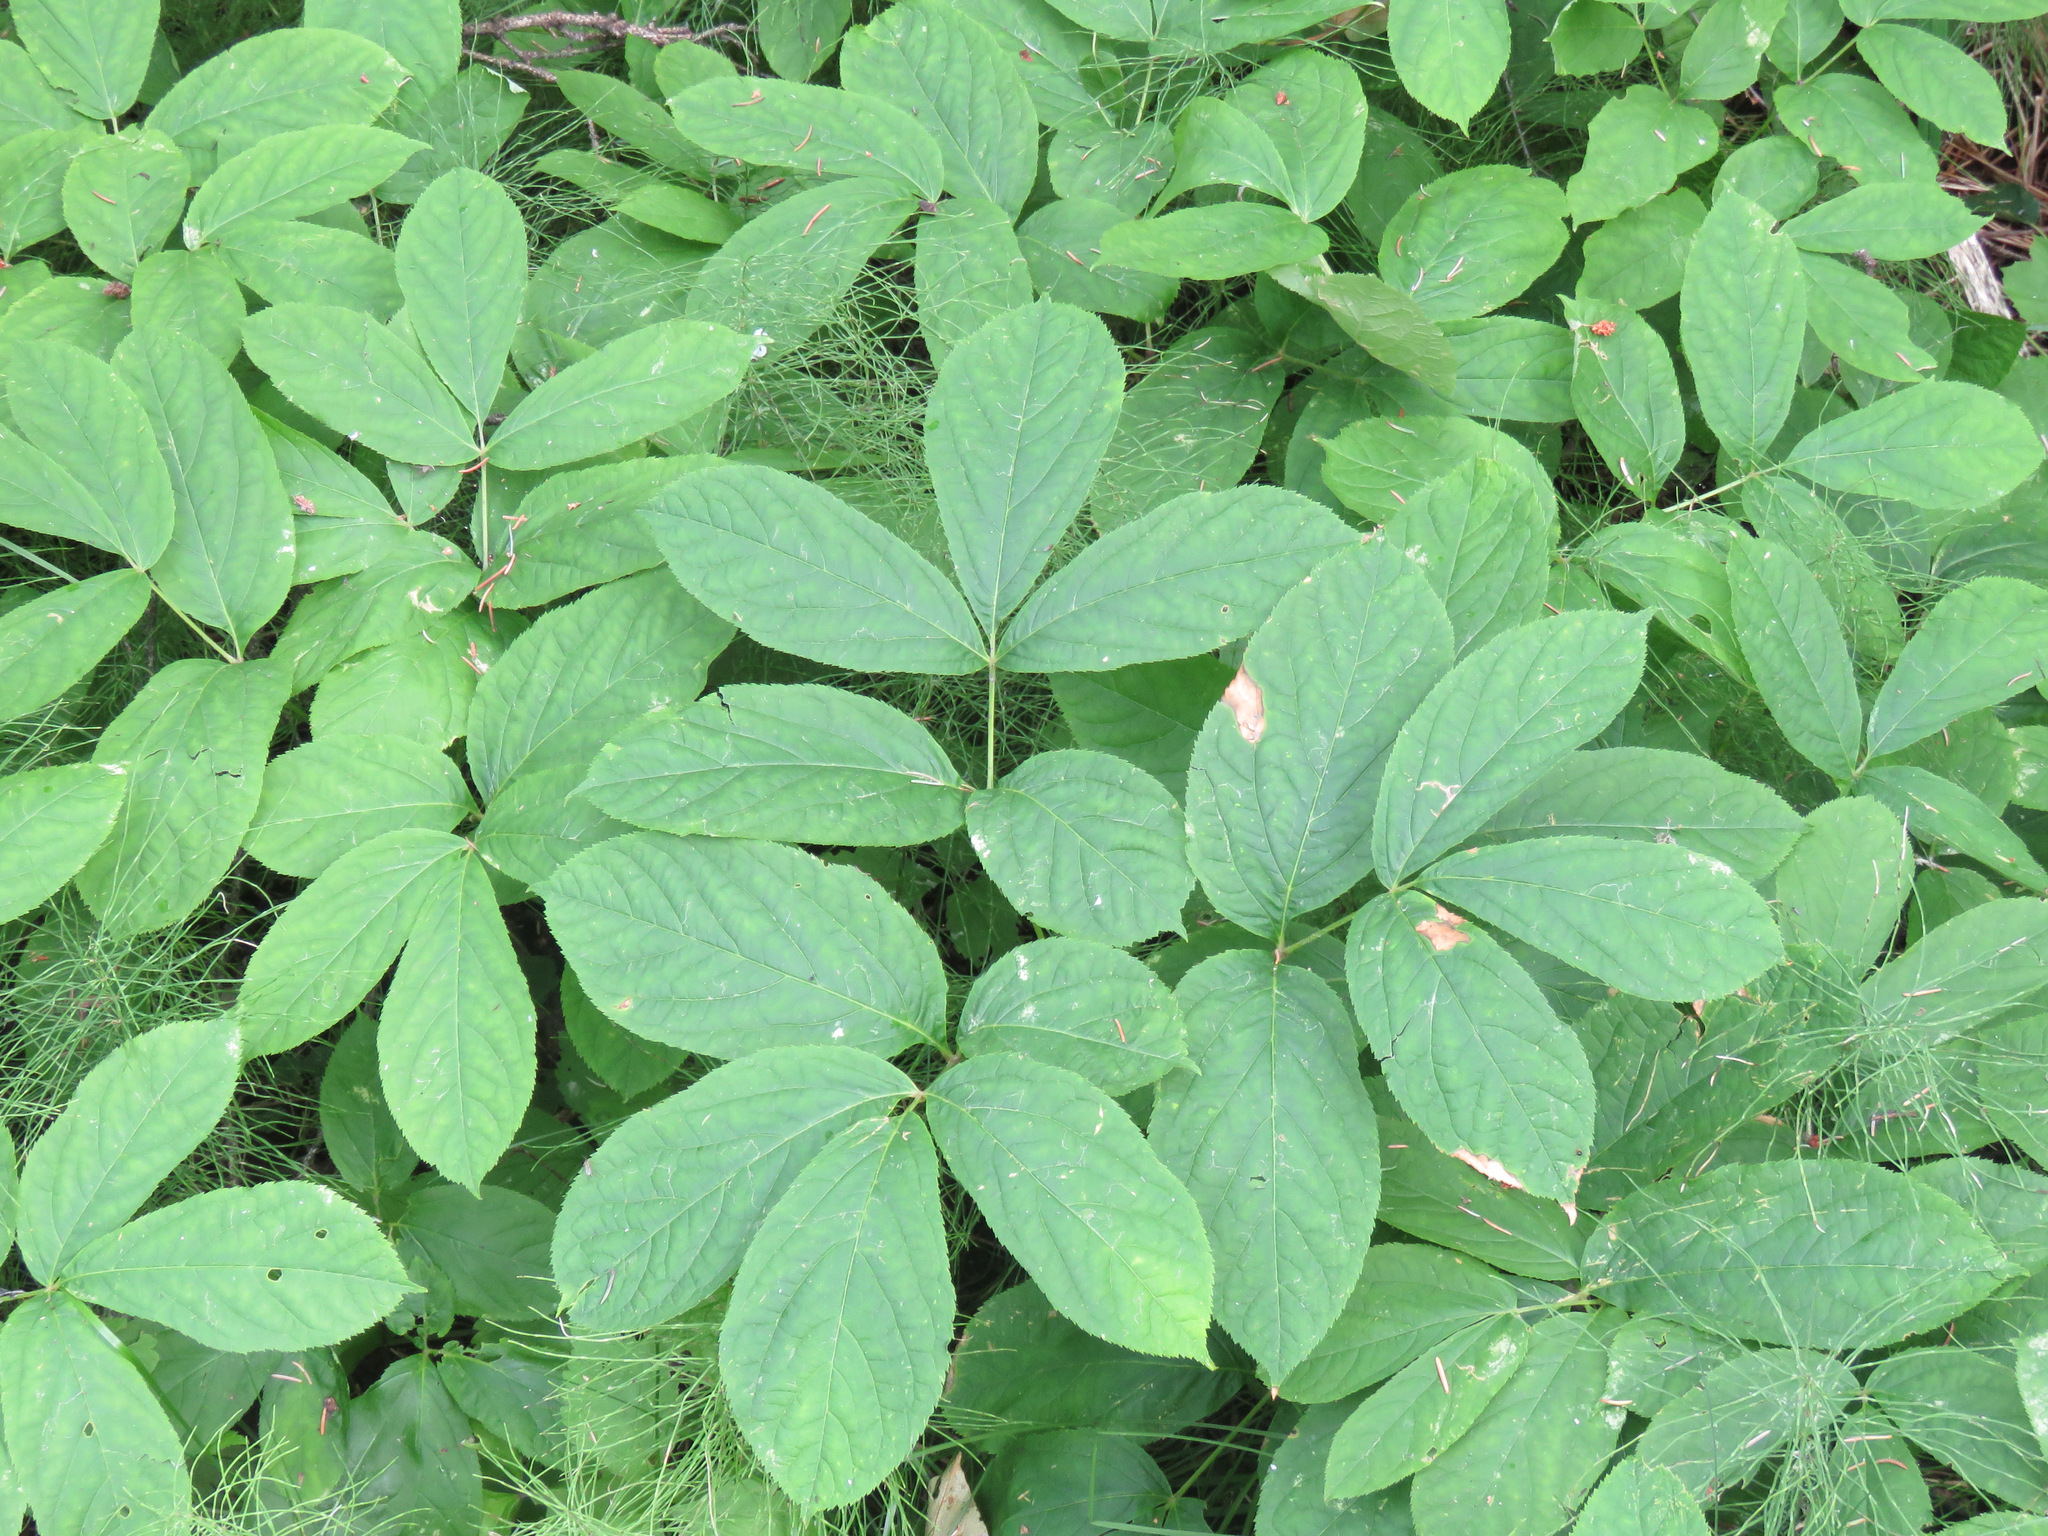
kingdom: Plantae
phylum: Tracheophyta
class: Magnoliopsida
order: Apiales
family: Araliaceae
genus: Aralia
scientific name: Aralia nudicaulis
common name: Wild sarsaparilla
